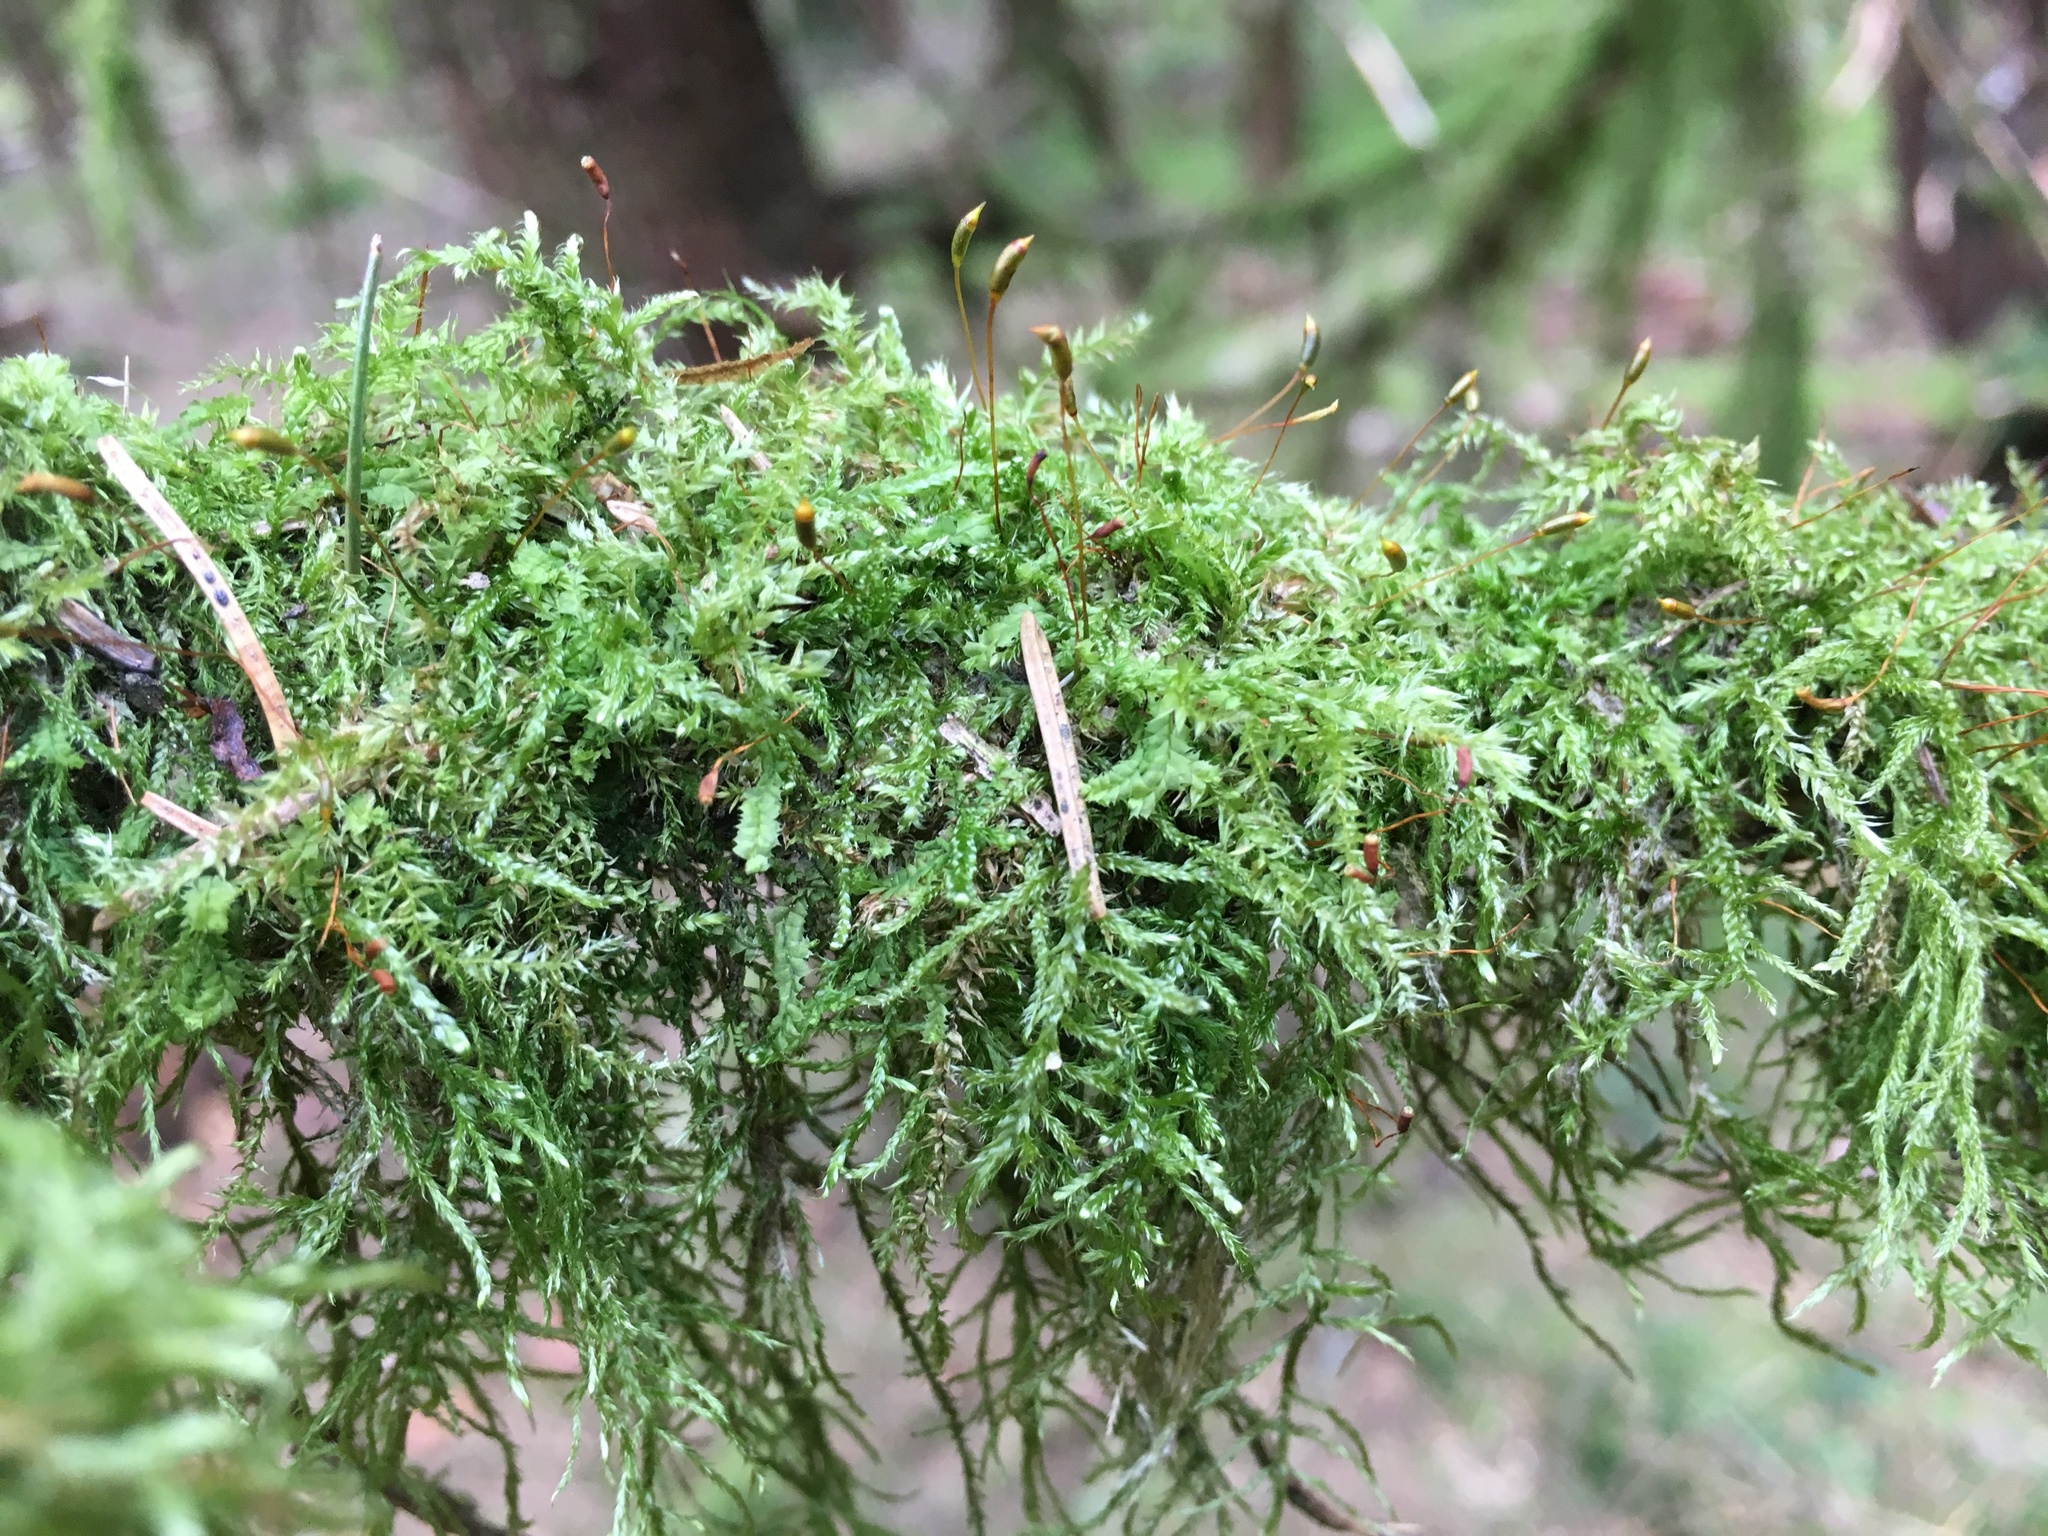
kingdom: Plantae
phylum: Bryophyta
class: Bryopsida
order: Hypnales
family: Hypnaceae
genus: Hypnum
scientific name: Hypnum cupressiforme
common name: Cypress-leaved plait-moss
